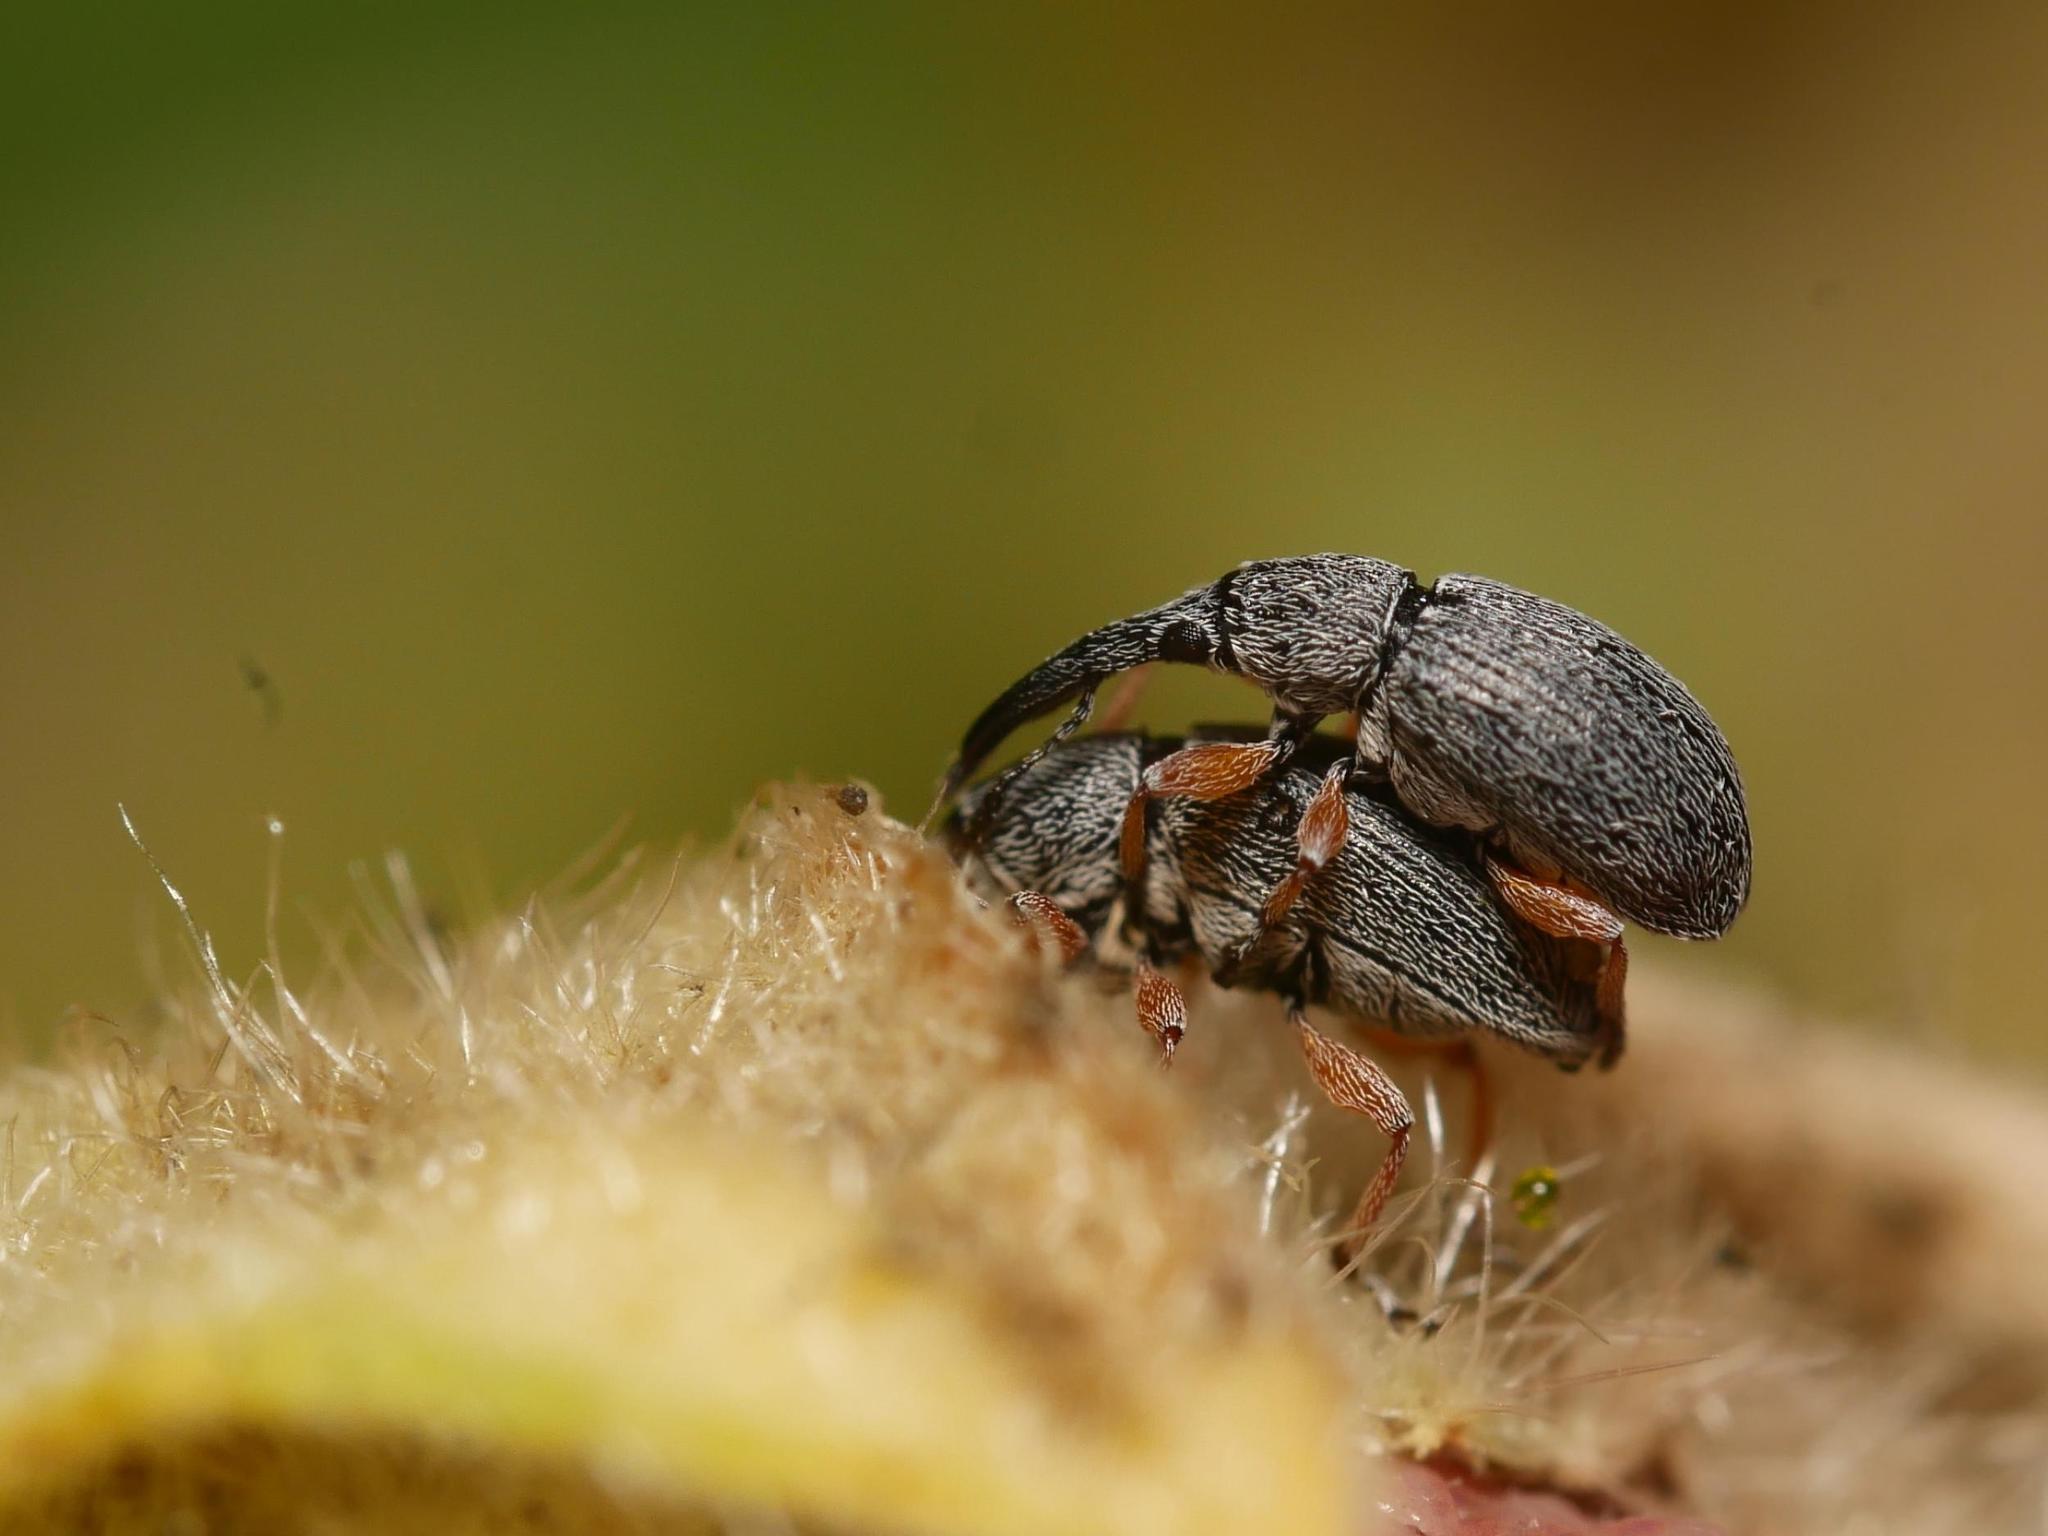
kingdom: Animalia
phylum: Arthropoda
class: Insecta
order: Coleoptera
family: Brentidae
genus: Rhopalapion
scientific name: Rhopalapion longirostre
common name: Hollyhock weevil
